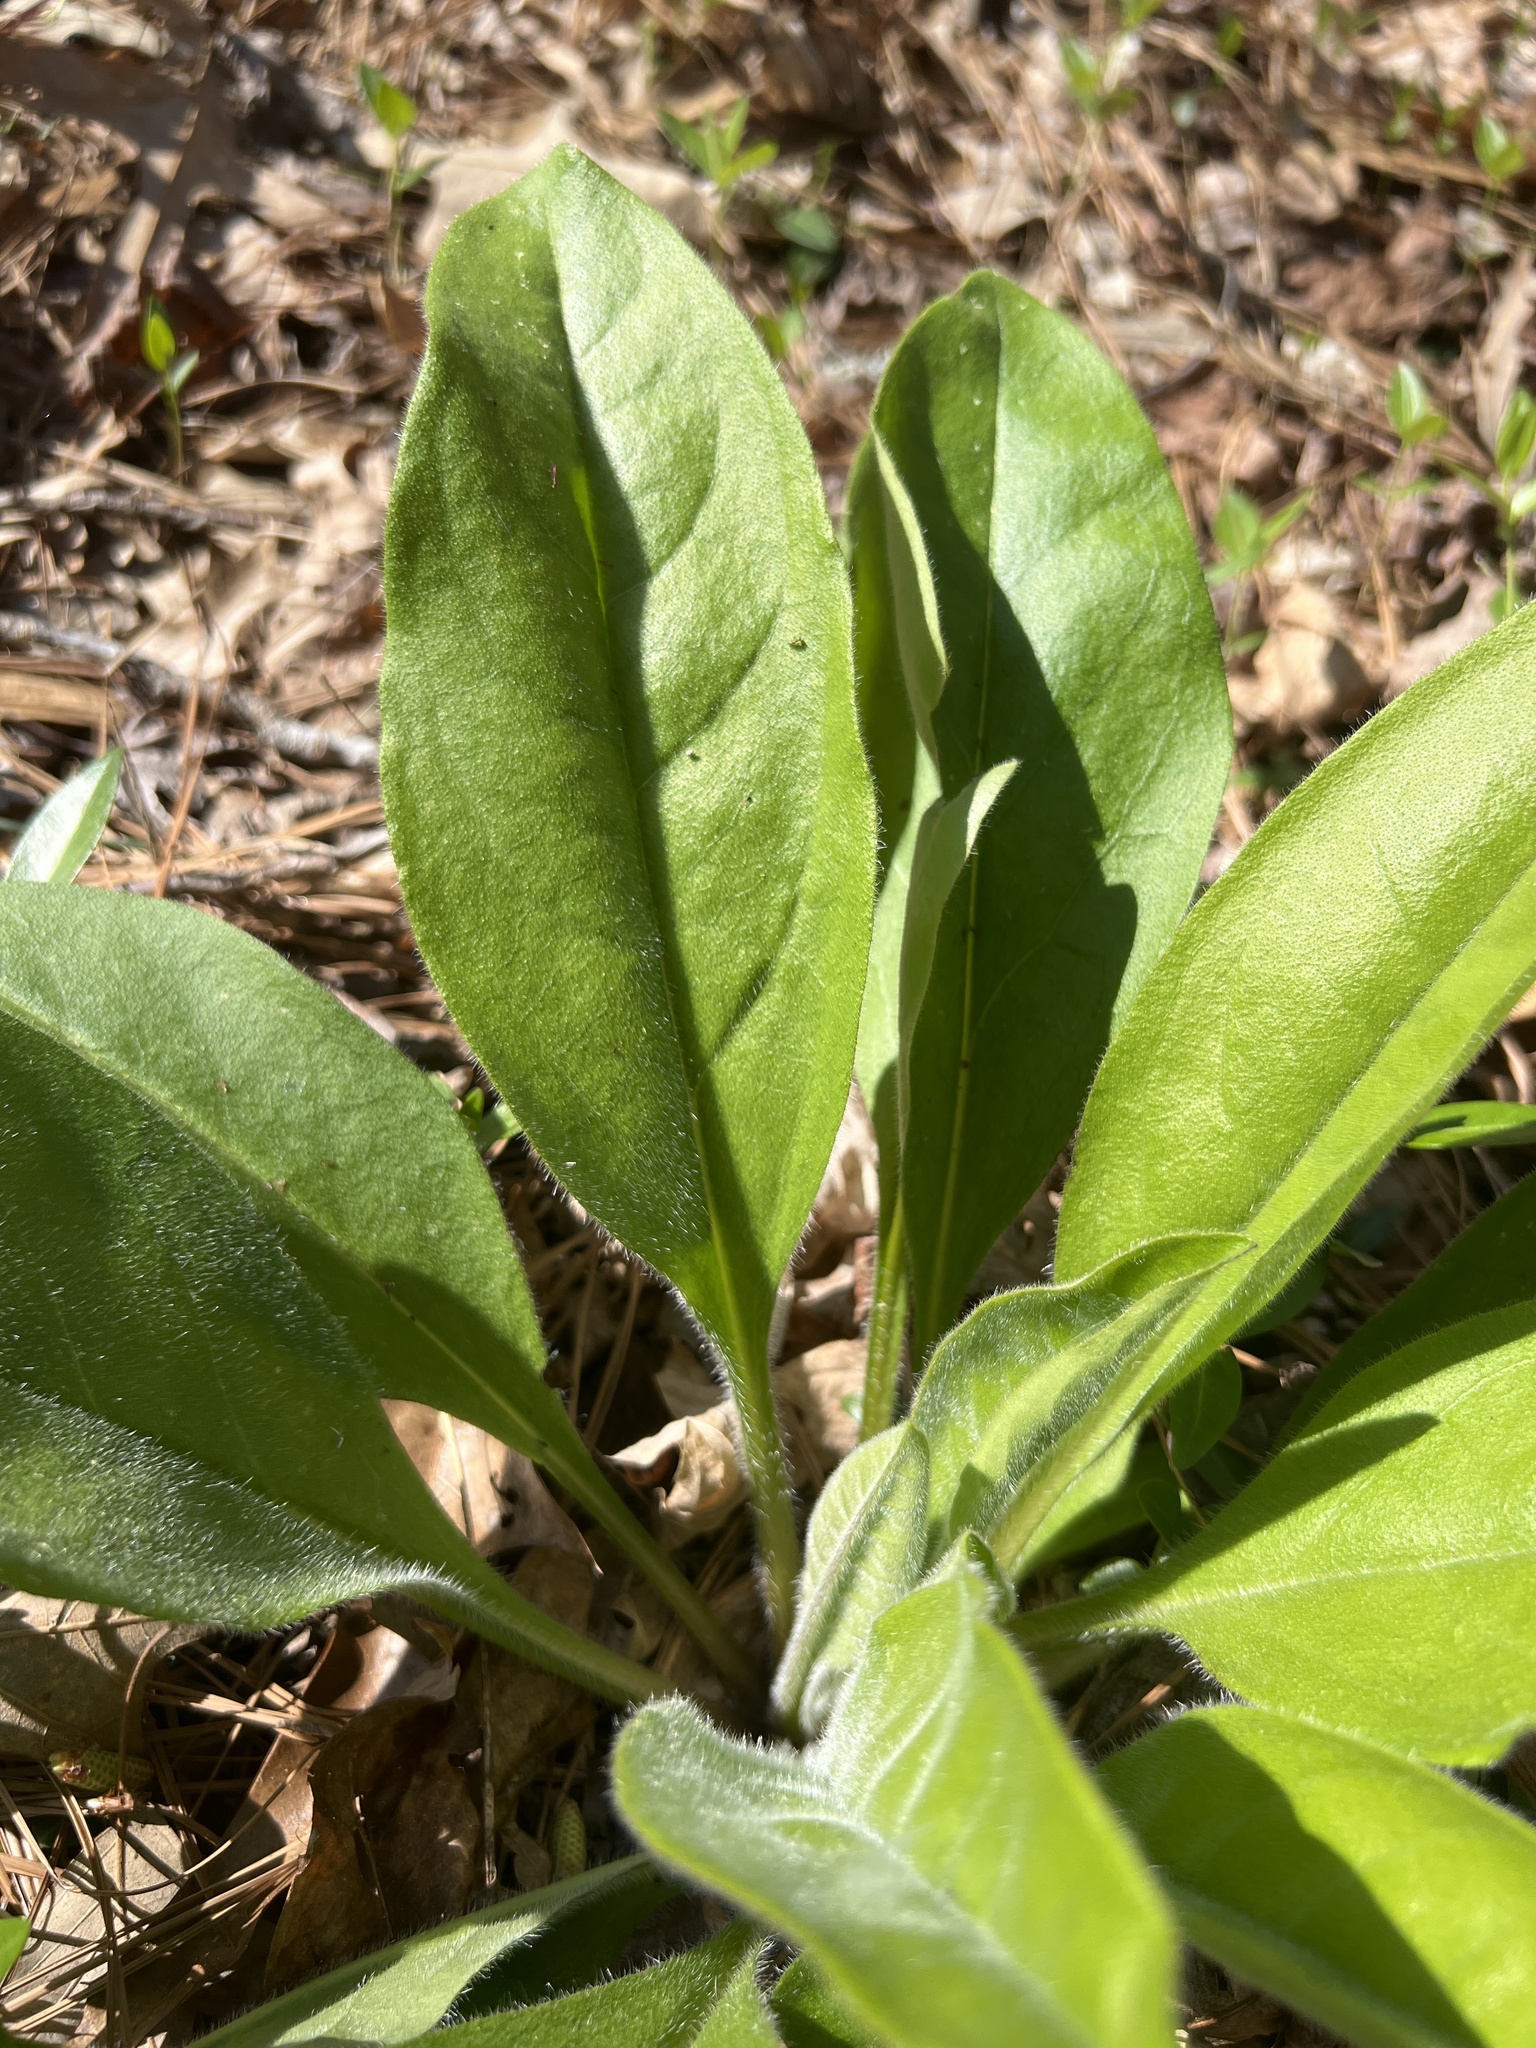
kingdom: Plantae
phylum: Tracheophyta
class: Magnoliopsida
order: Boraginales
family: Boraginaceae
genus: Andersonglossum
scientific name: Andersonglossum virginianum
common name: Wild comfrey
